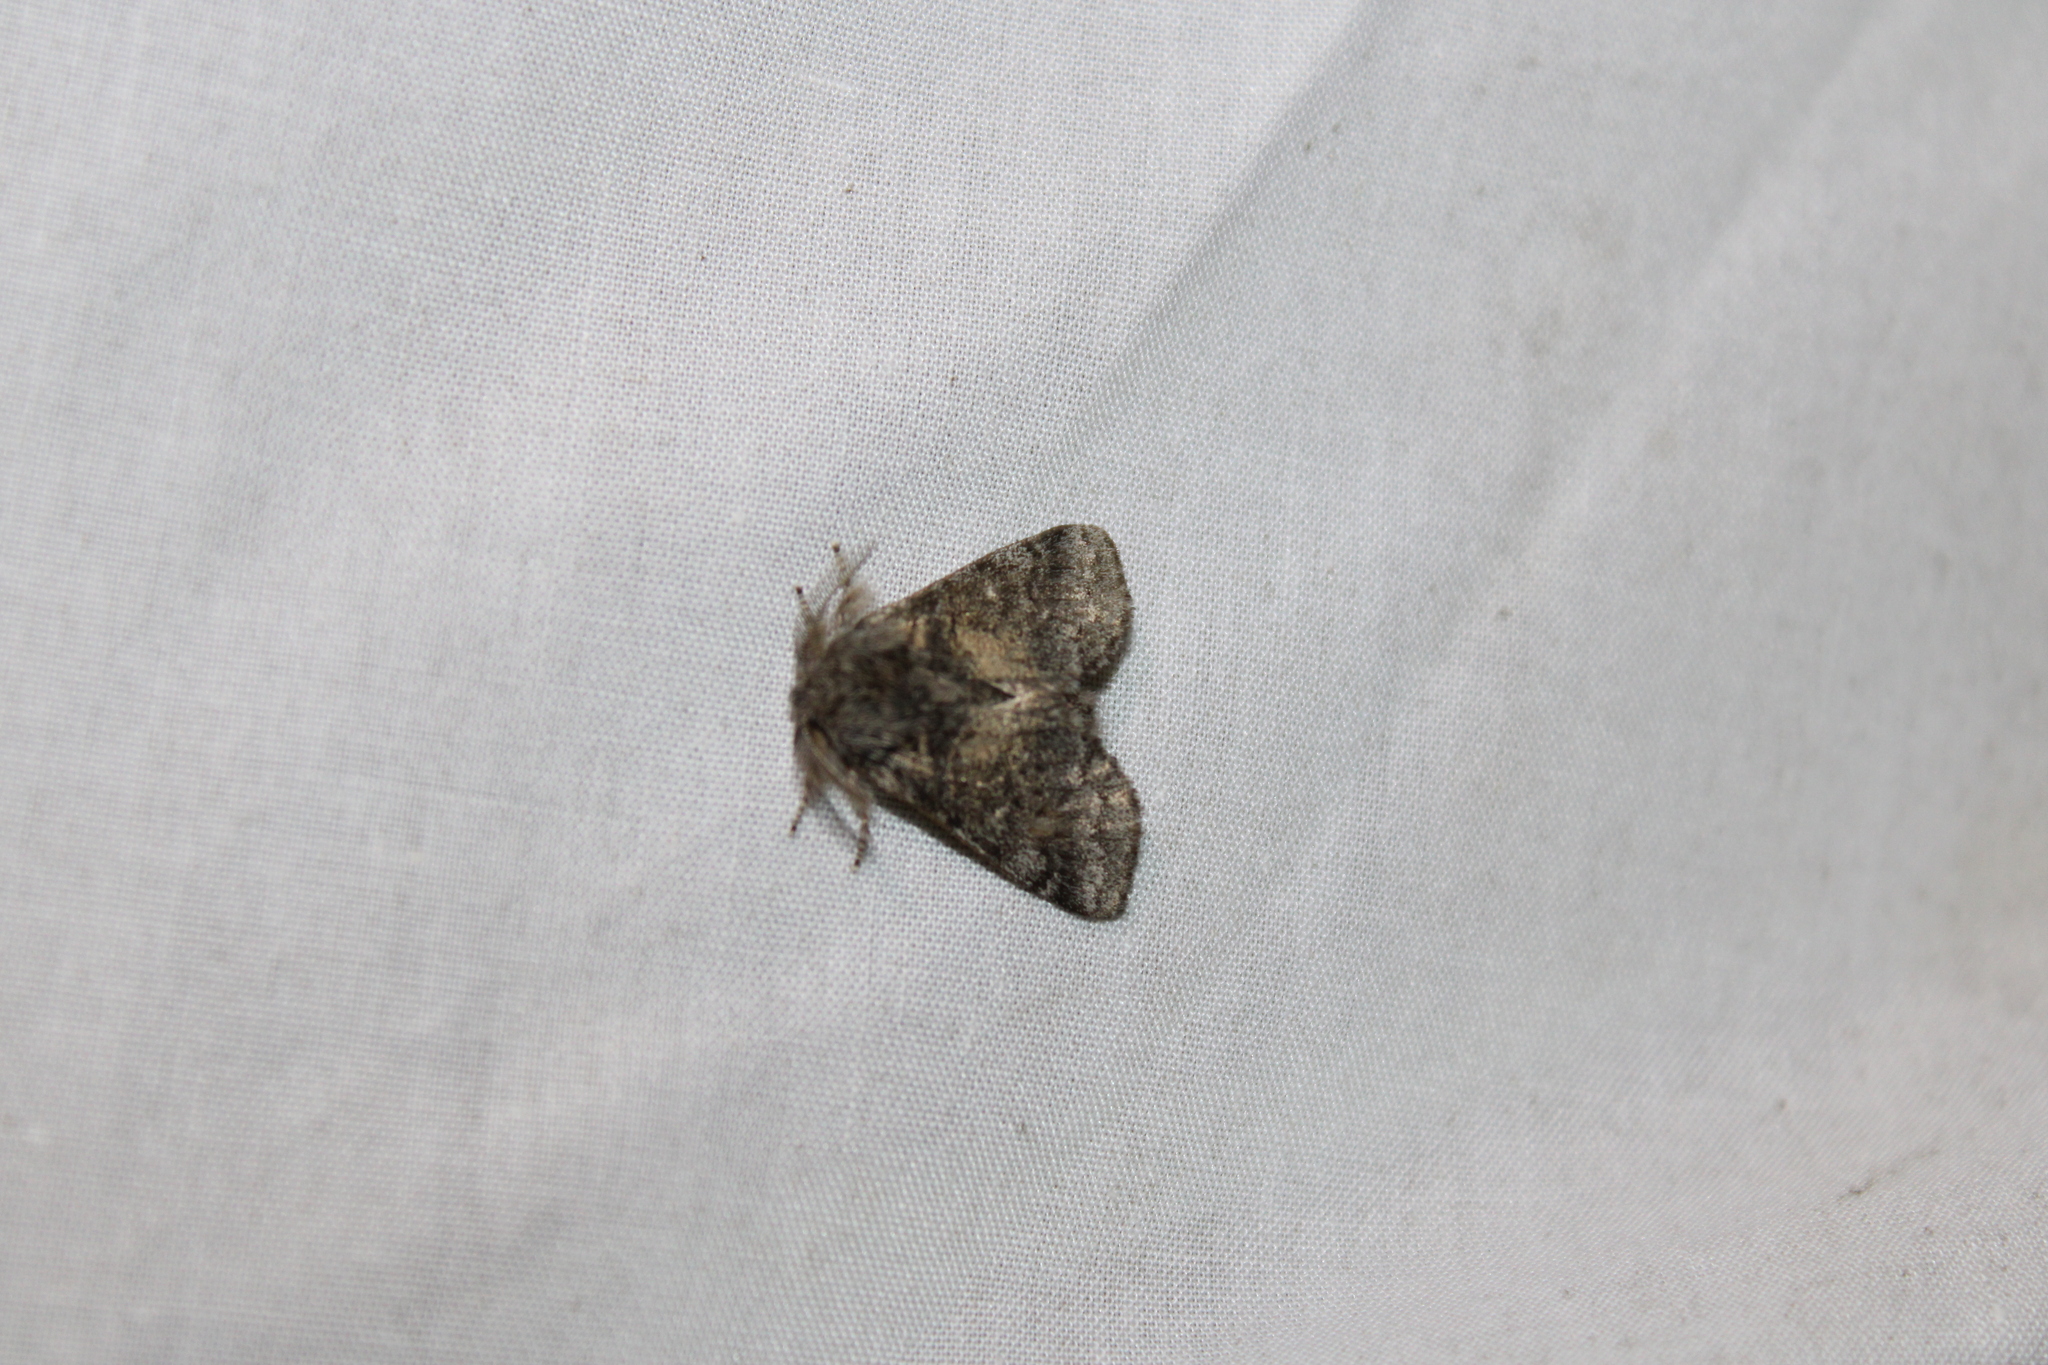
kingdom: Animalia
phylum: Arthropoda
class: Insecta
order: Lepidoptera
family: Notodontidae
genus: Gluphisia
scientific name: Gluphisia septentrionis
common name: Common gluphisia
